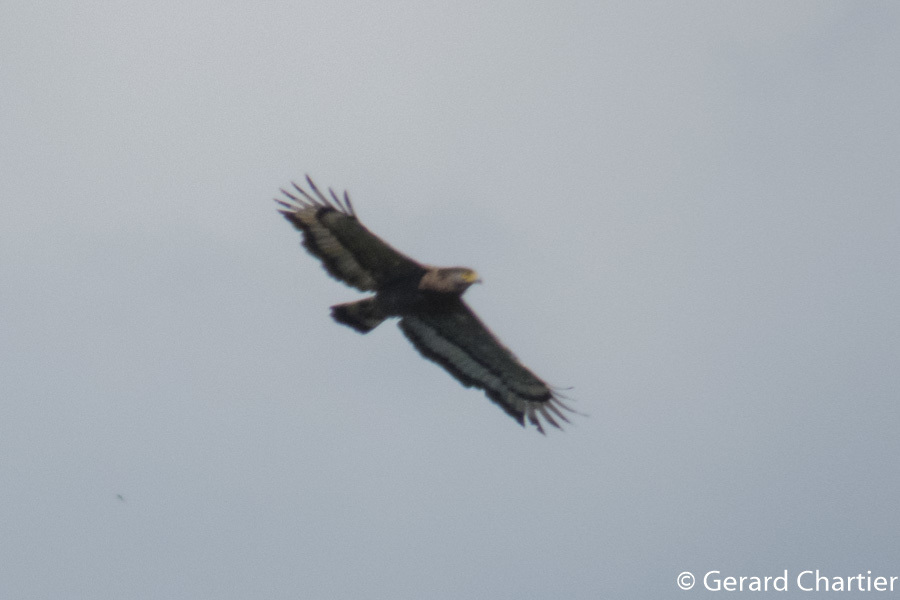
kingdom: Animalia
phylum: Chordata
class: Aves
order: Accipitriformes
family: Accipitridae
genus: Spilornis
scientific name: Spilornis cheela
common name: Crested serpent eagle
